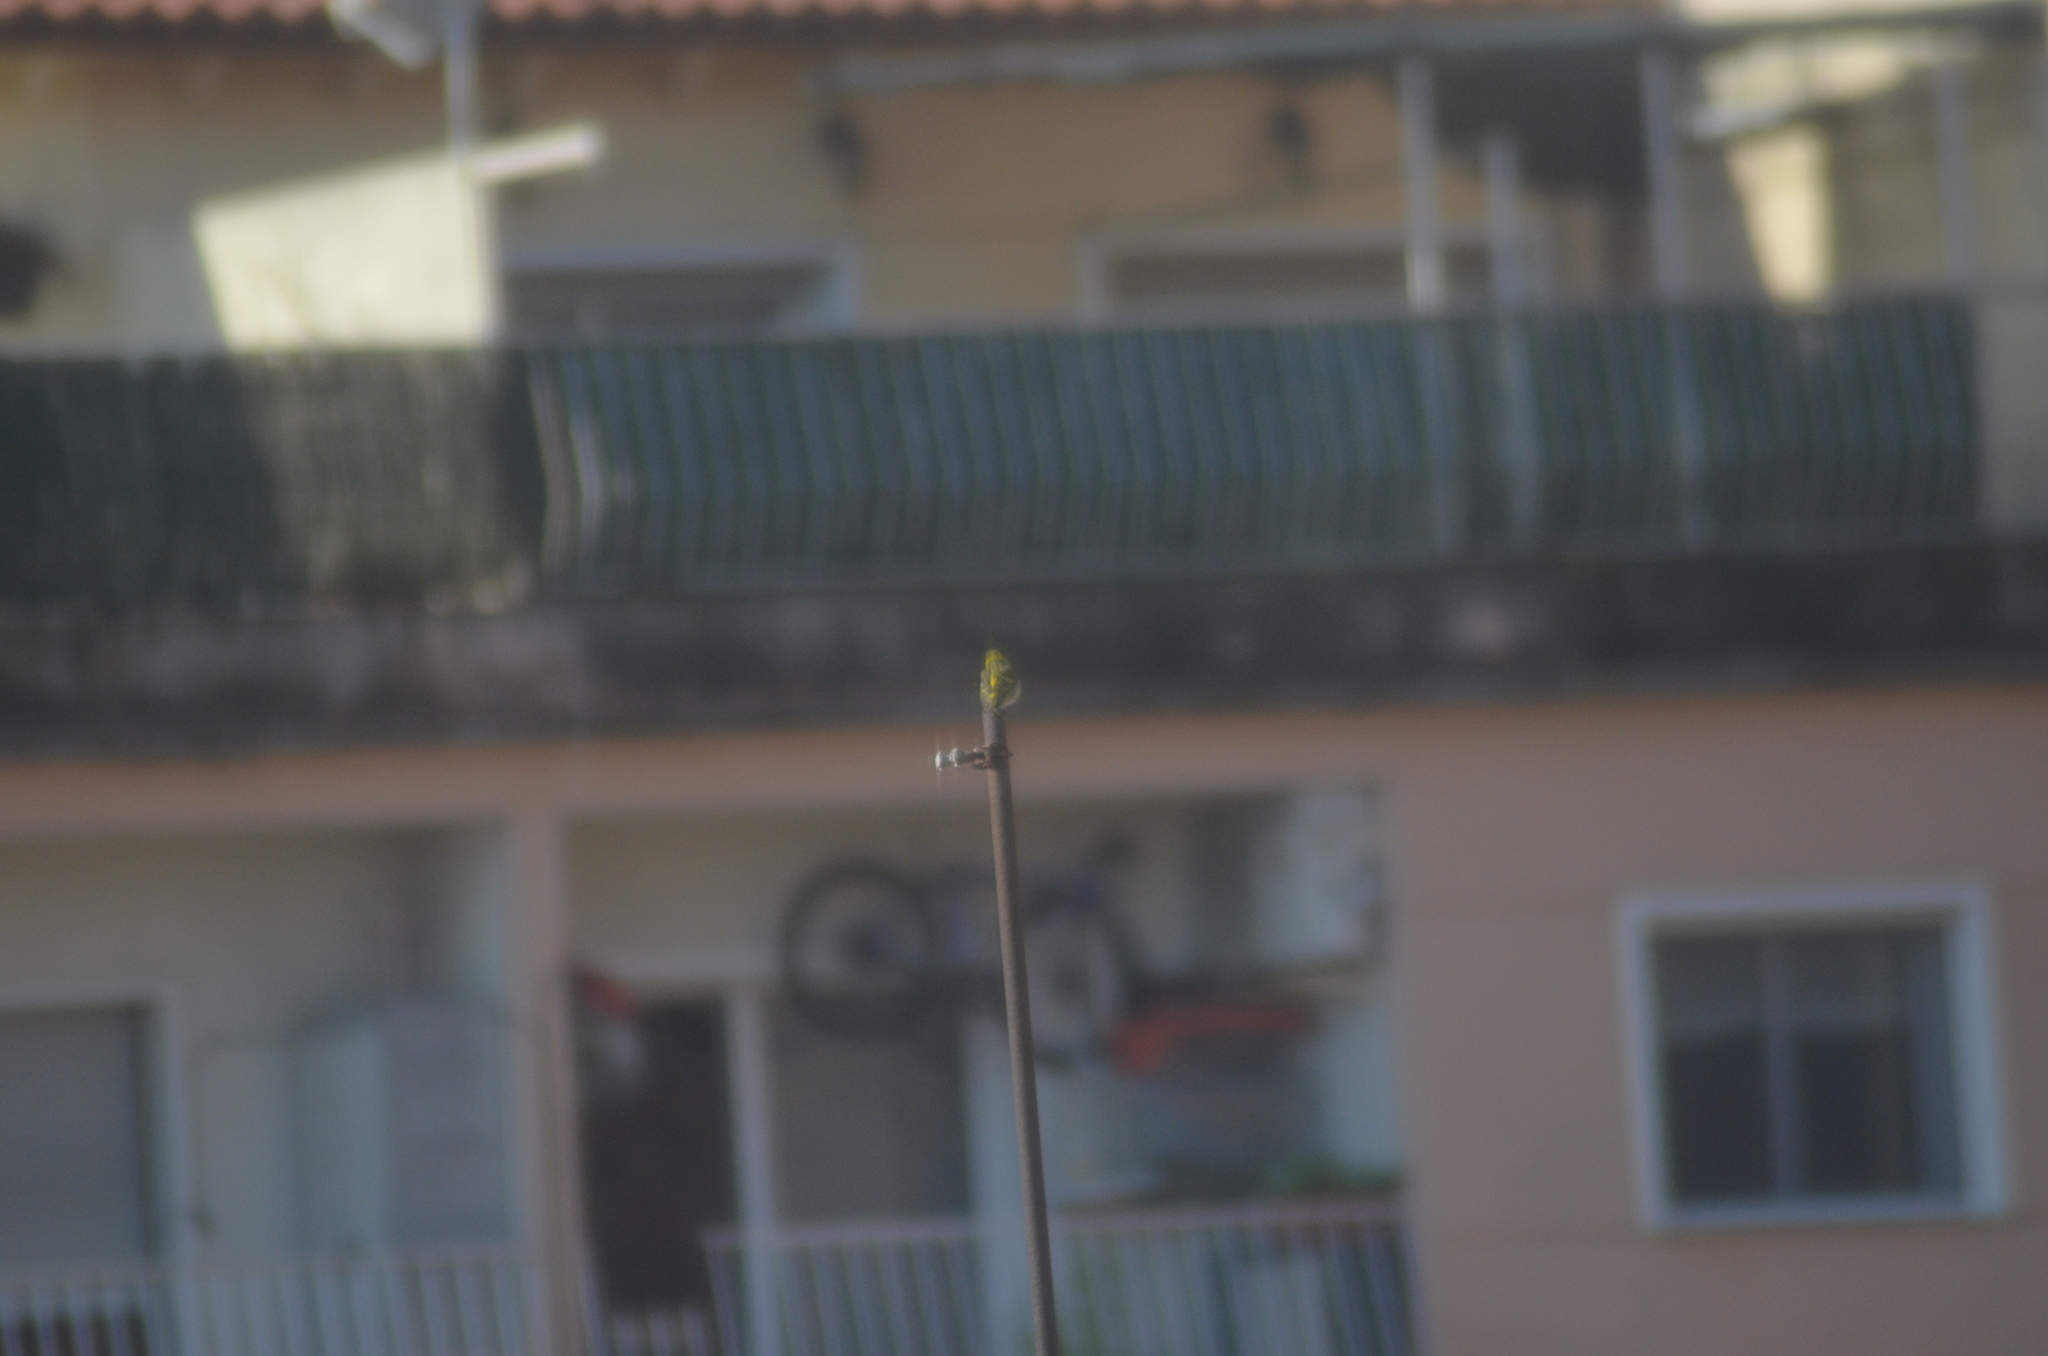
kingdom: Animalia
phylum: Chordata
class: Aves
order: Passeriformes
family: Fringillidae
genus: Serinus
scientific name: Serinus serinus
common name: European serin
